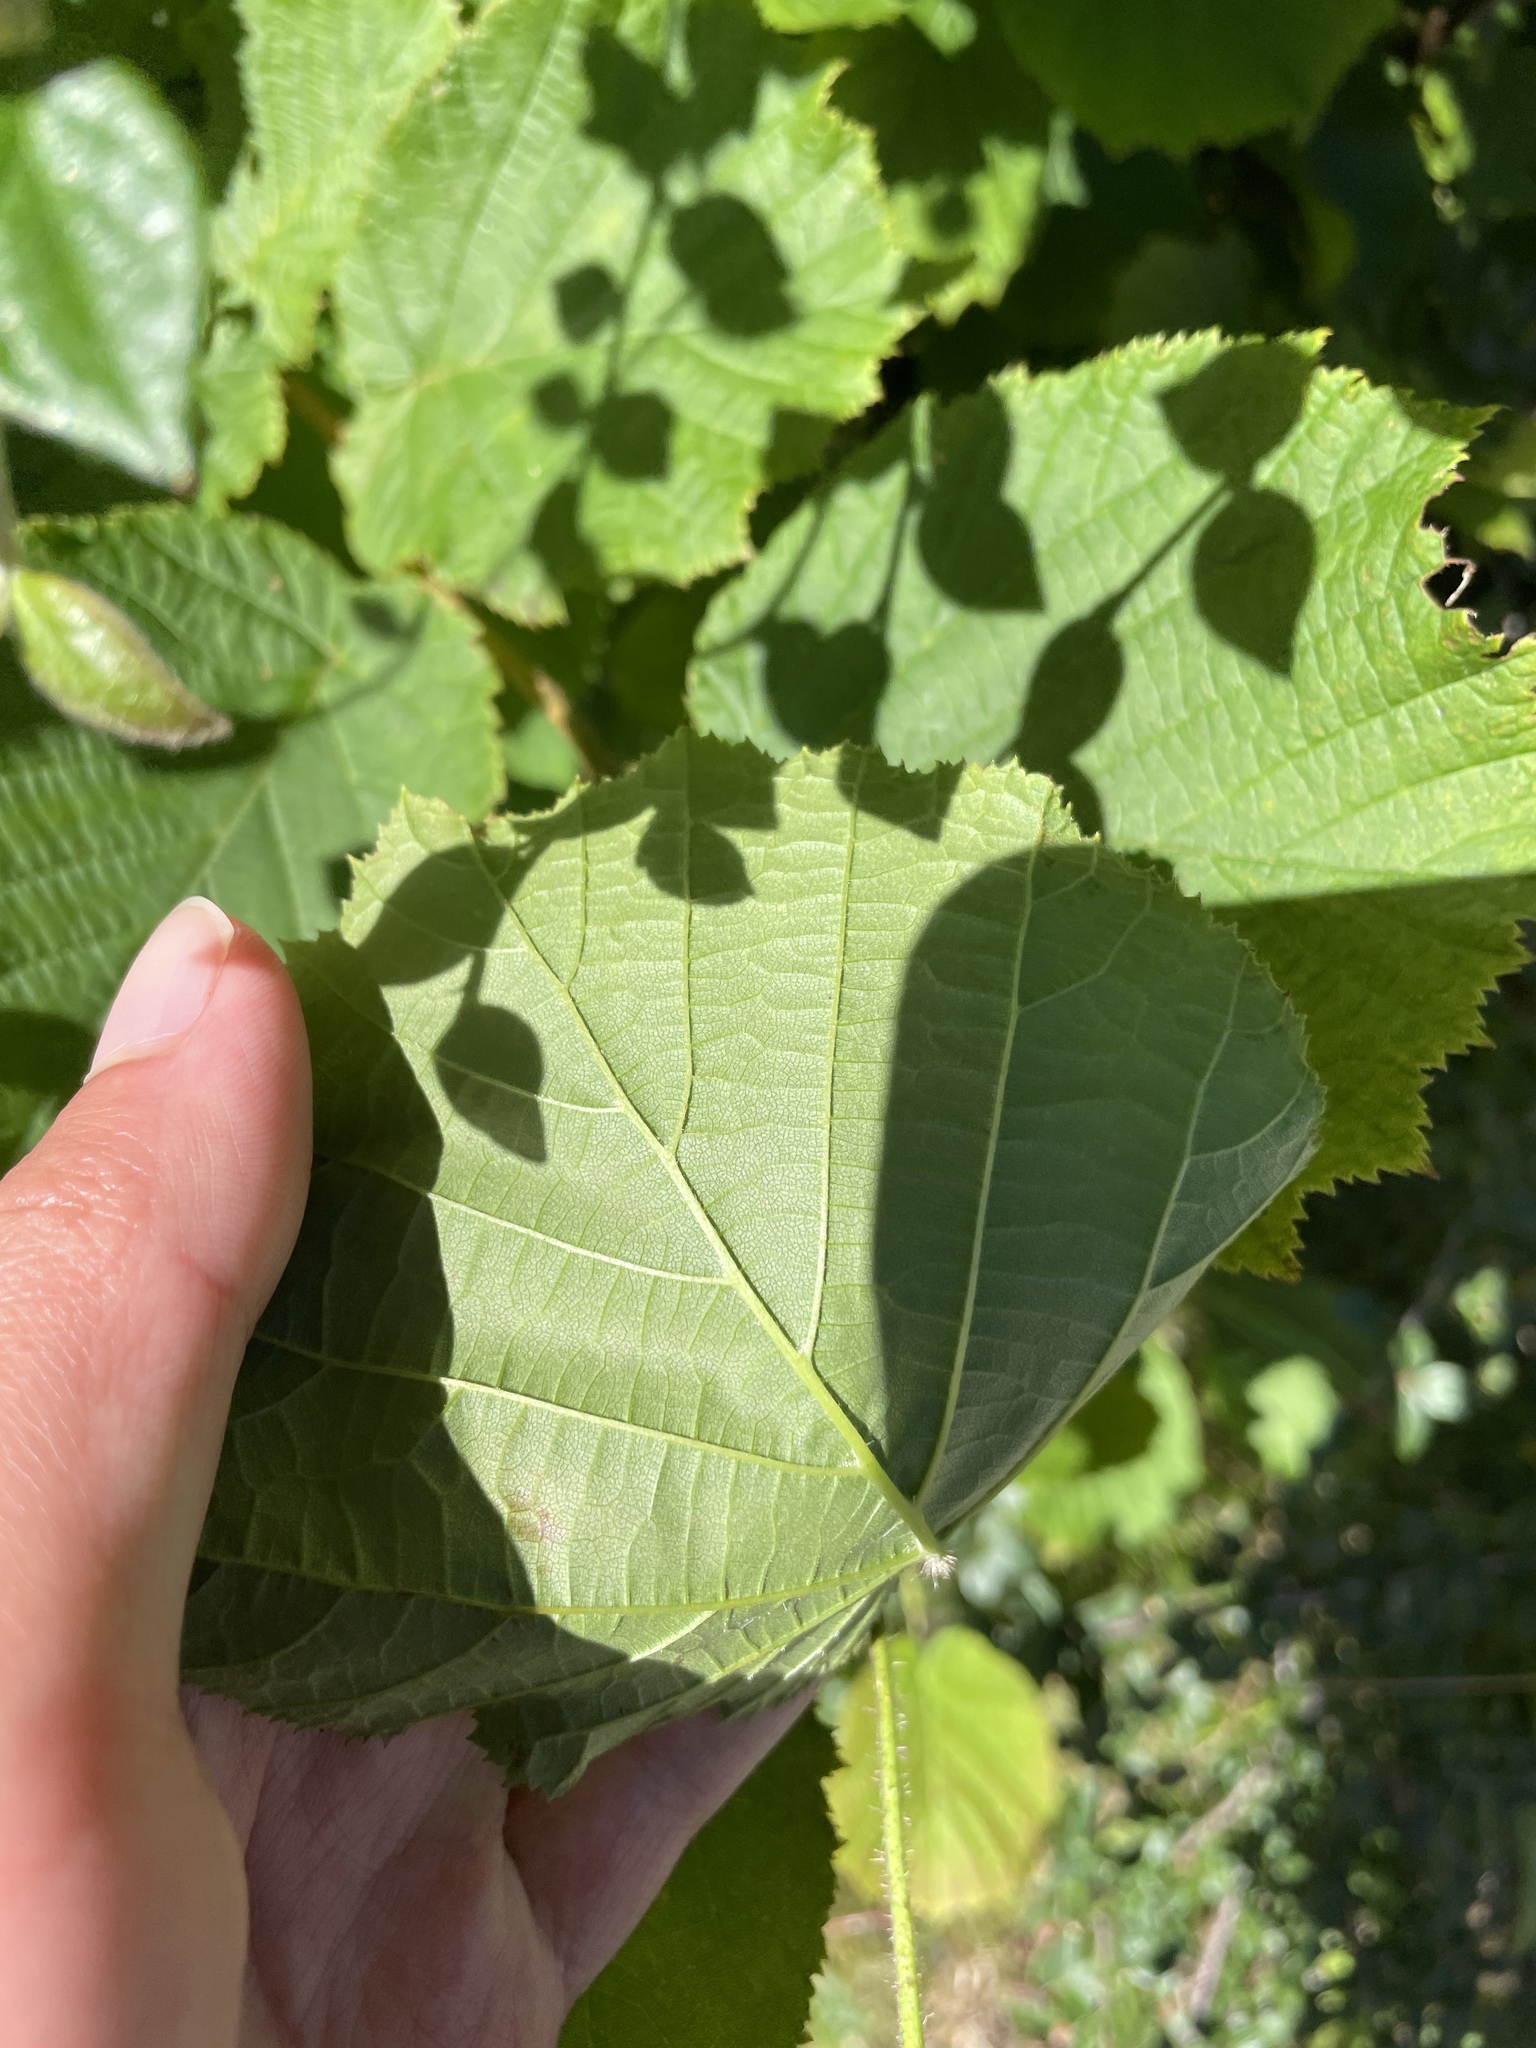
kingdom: Plantae
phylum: Tracheophyta
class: Magnoliopsida
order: Fagales
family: Betulaceae
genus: Corylus
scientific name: Corylus avellana
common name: European hazel
